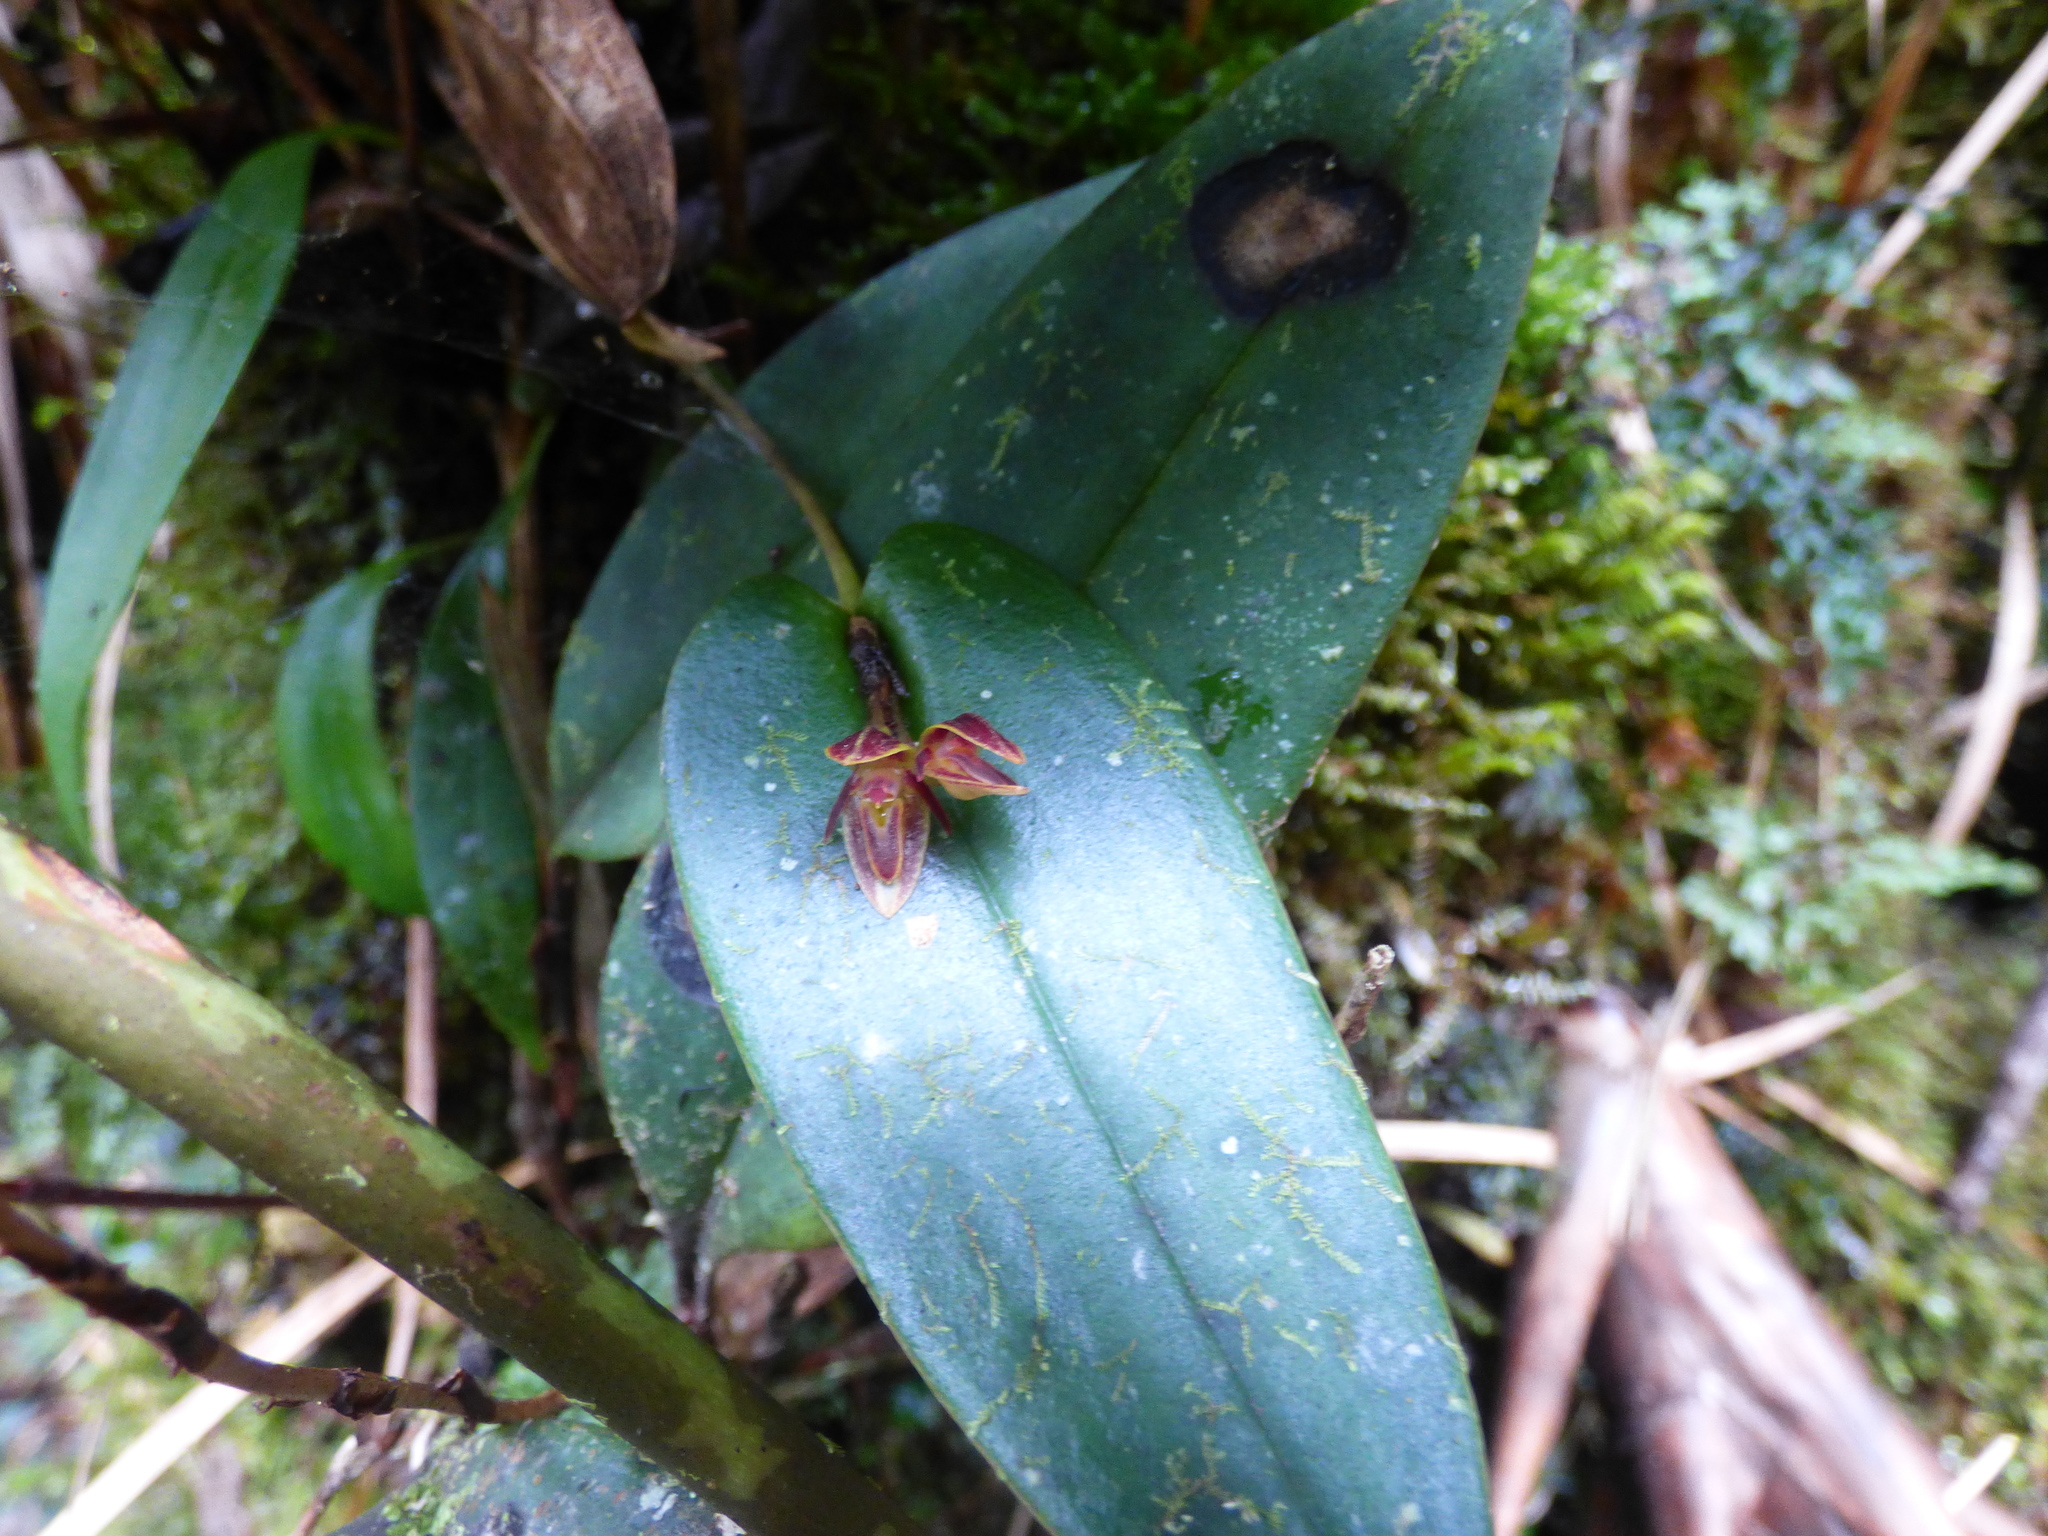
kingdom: Plantae
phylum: Tracheophyta
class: Liliopsida
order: Asparagales
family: Orchidaceae
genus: Pleurothallis
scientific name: Pleurothallis matudana
